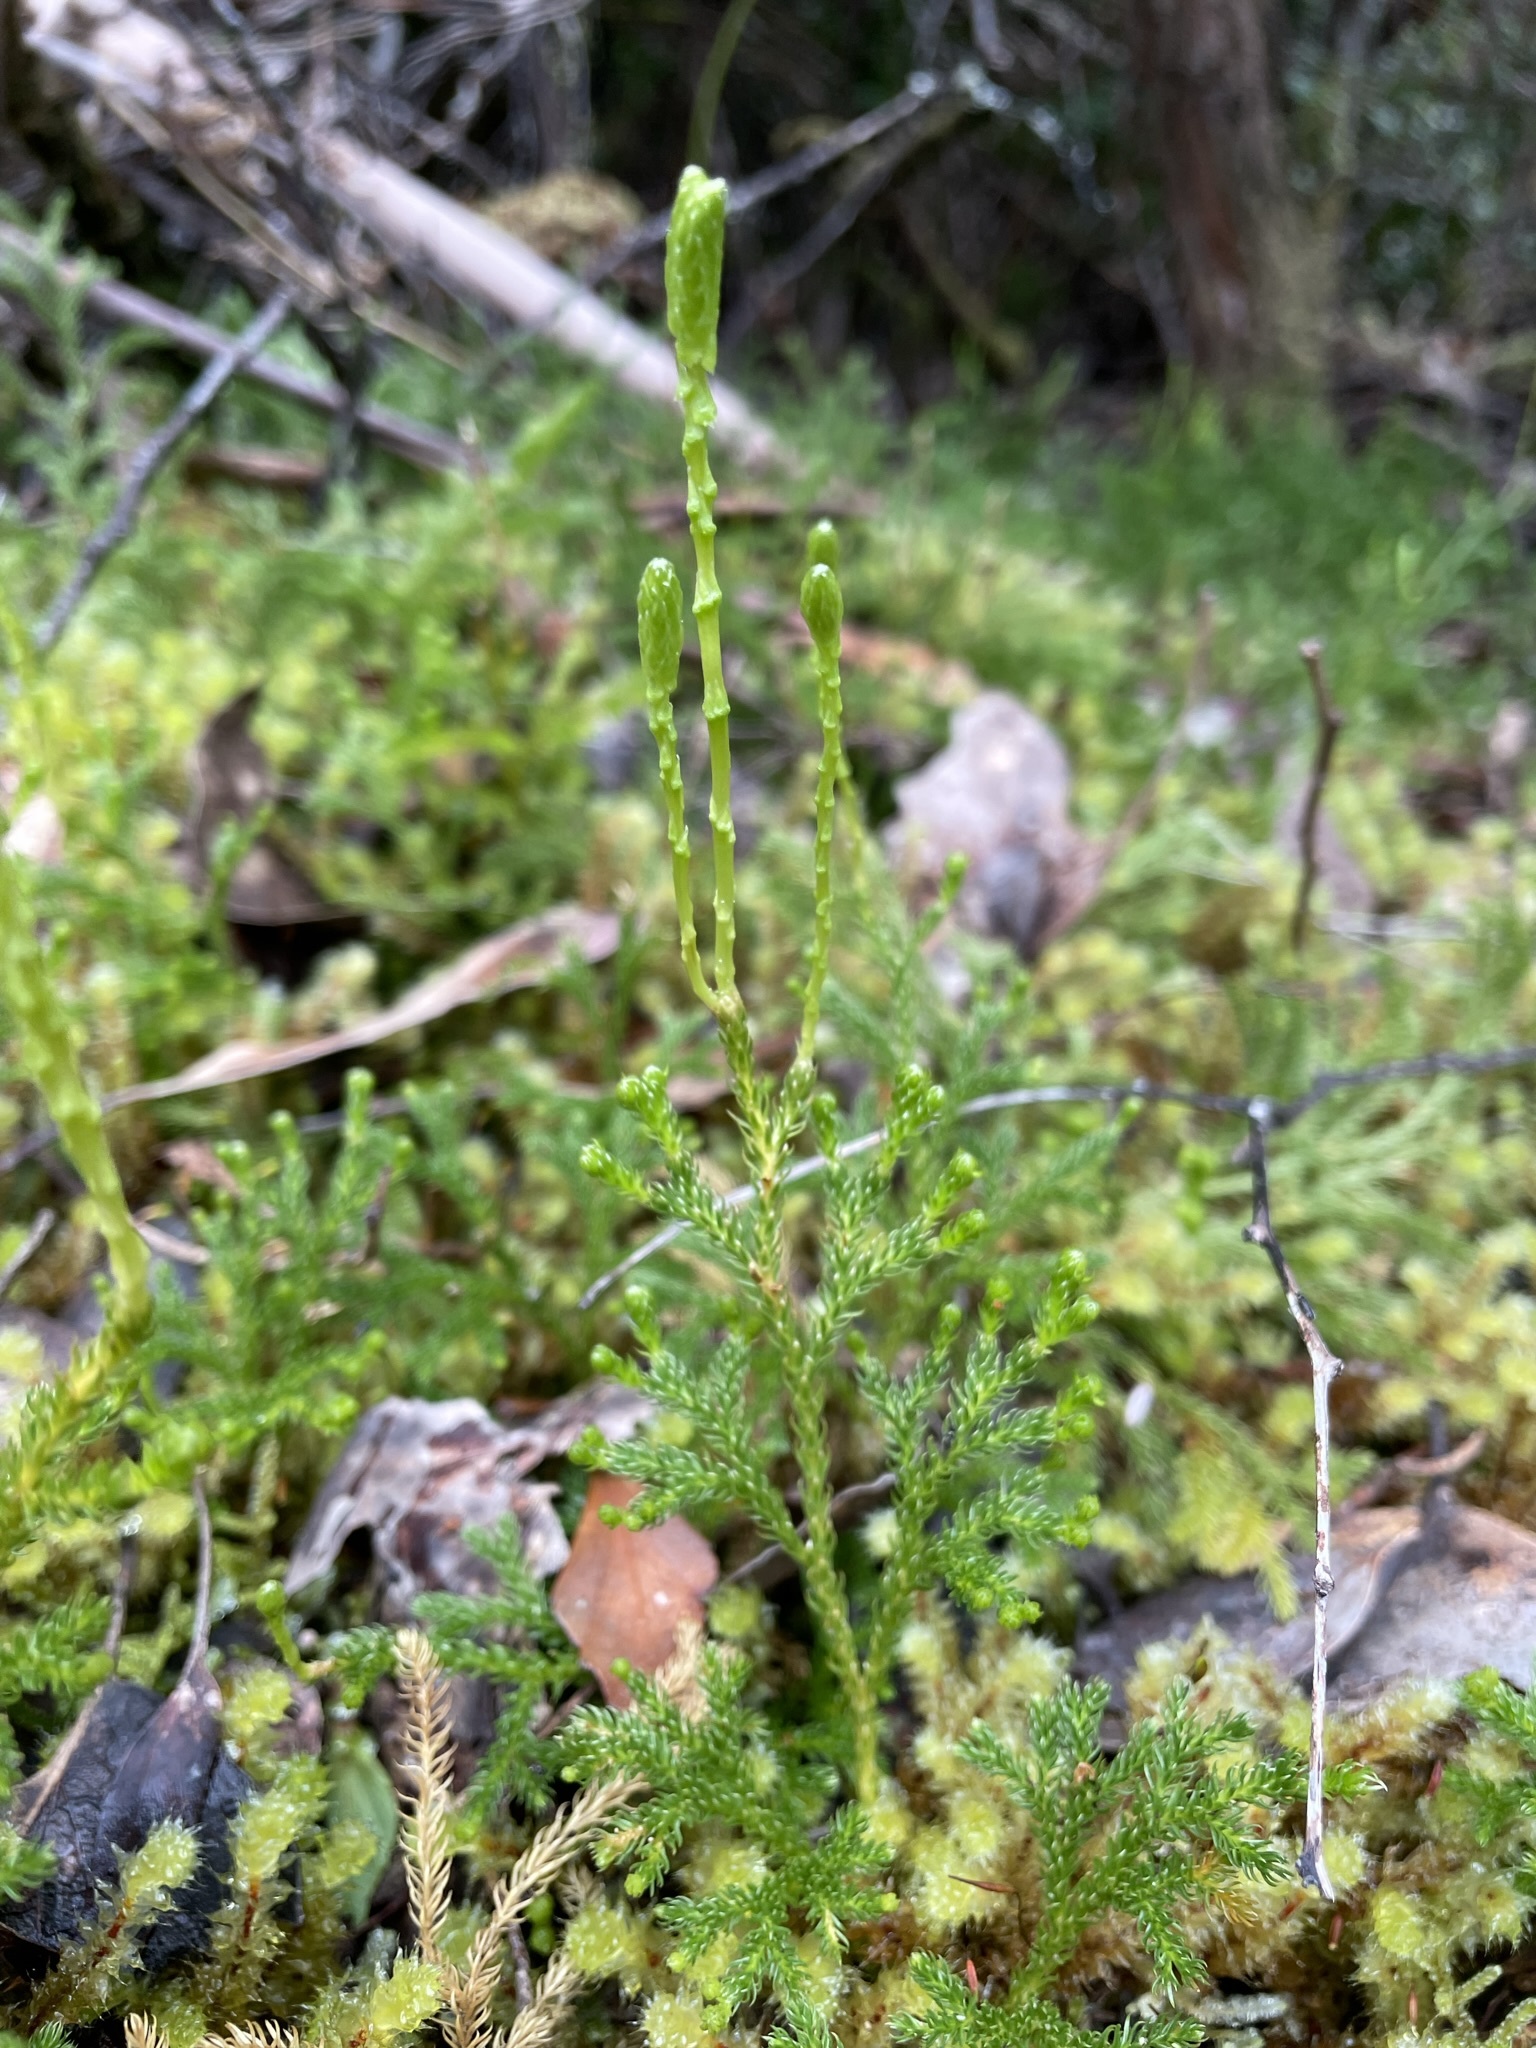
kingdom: Plantae
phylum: Tracheophyta
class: Lycopodiopsida
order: Lycopodiales
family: Lycopodiaceae
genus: Austrolycopodium
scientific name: Austrolycopodium fastigiatum
